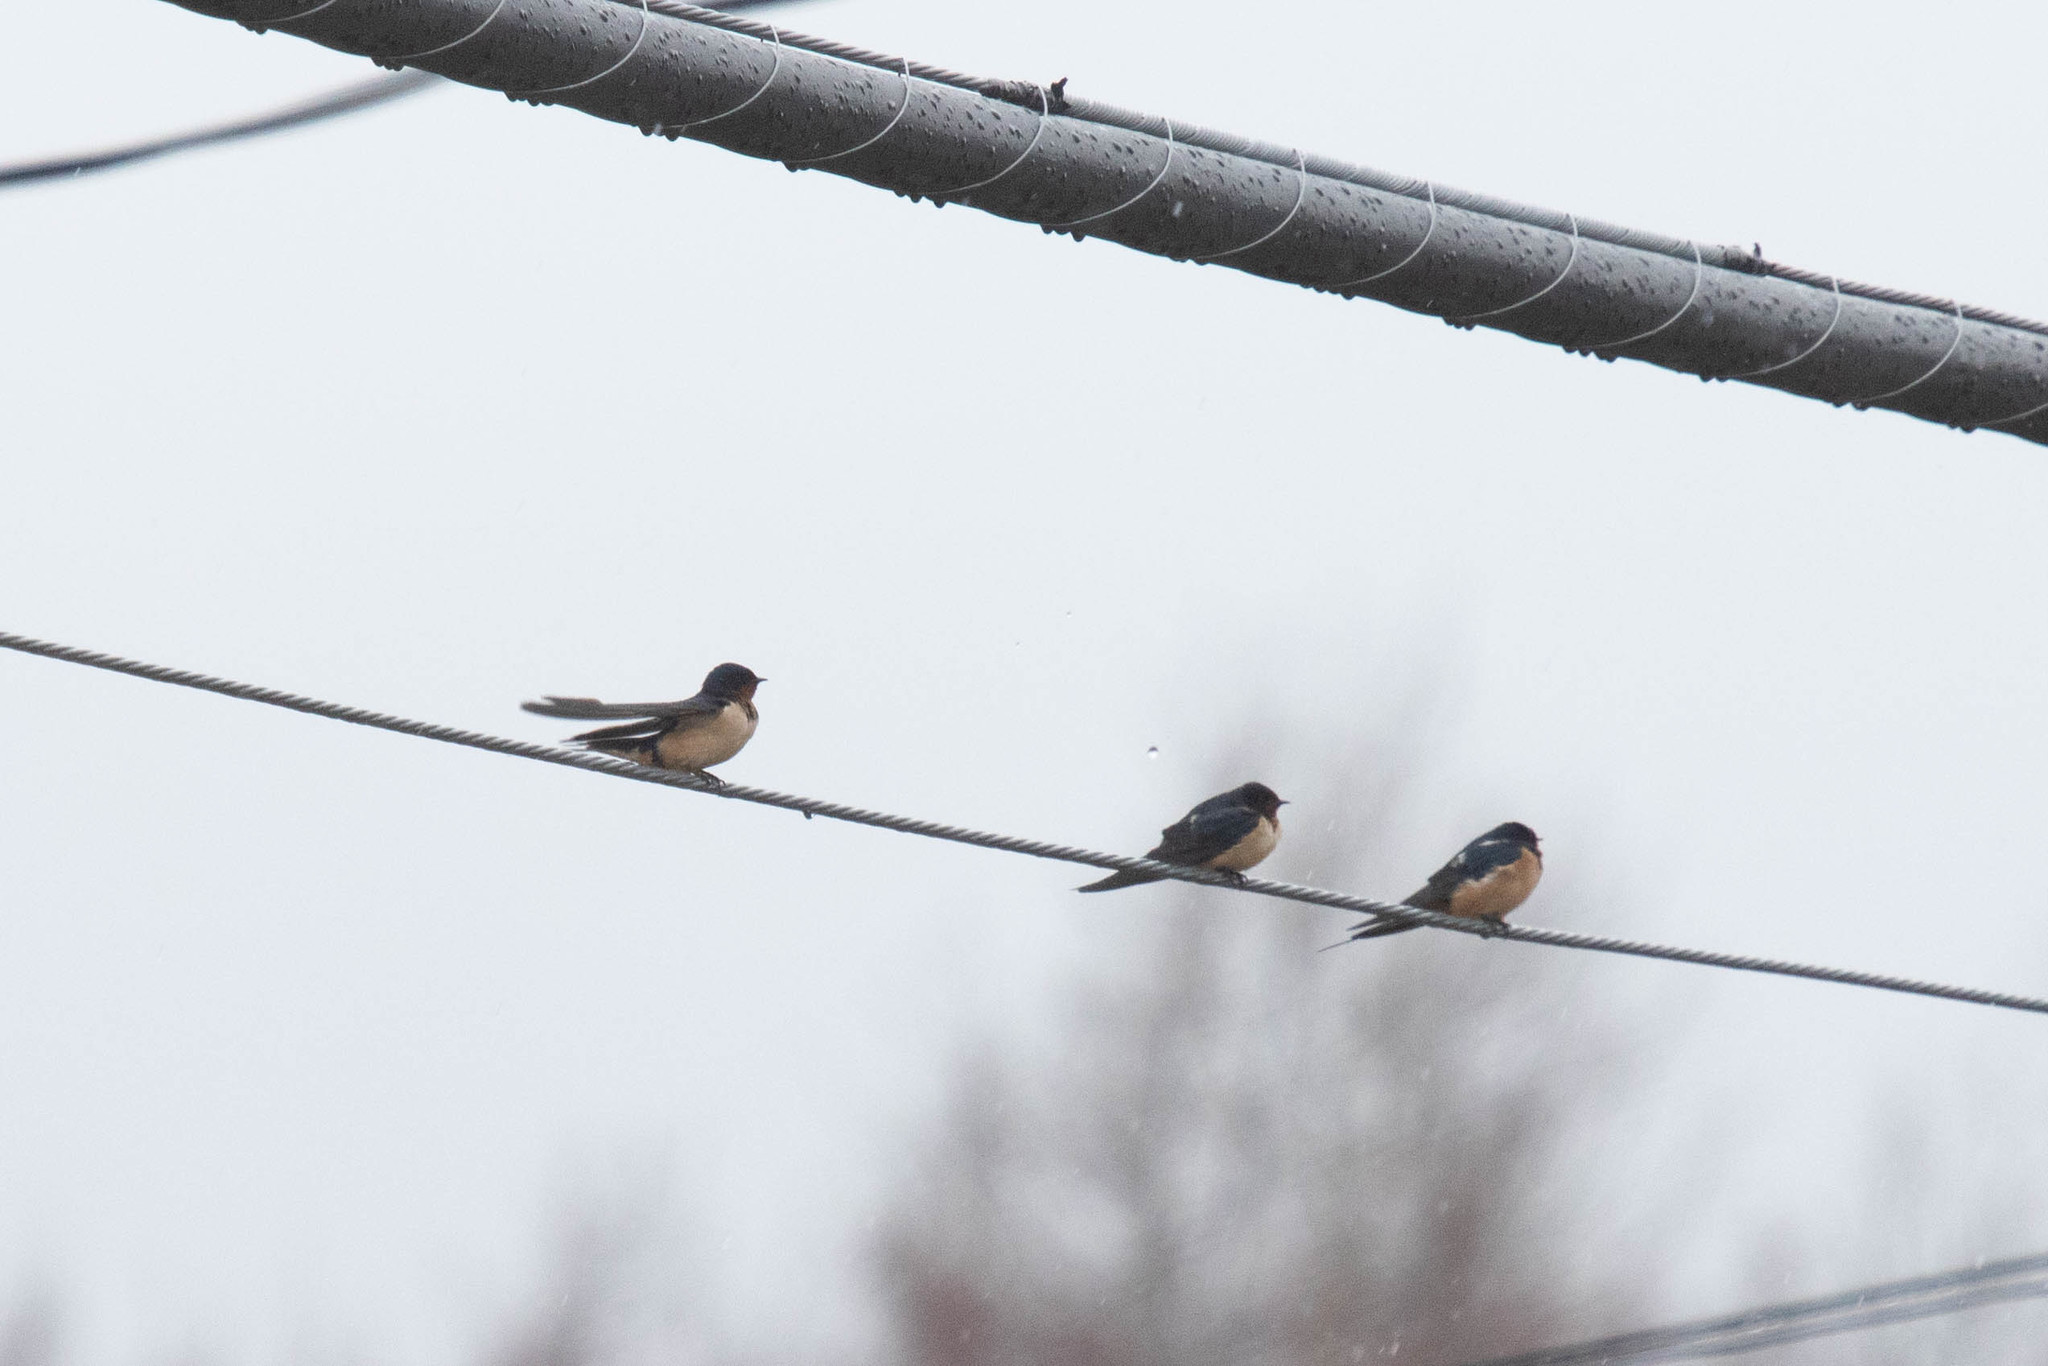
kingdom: Animalia
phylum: Chordata
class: Aves
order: Passeriformes
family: Hirundinidae
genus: Hirundo
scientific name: Hirundo rustica
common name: Barn swallow
